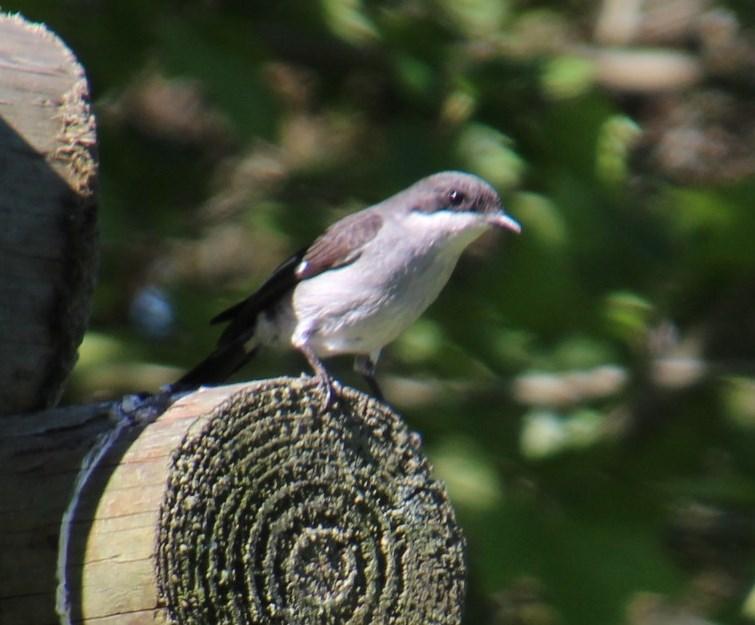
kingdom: Animalia
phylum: Chordata
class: Aves
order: Passeriformes
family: Muscicapidae
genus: Sigelus
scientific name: Sigelus silens
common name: Fiscal flycatcher
